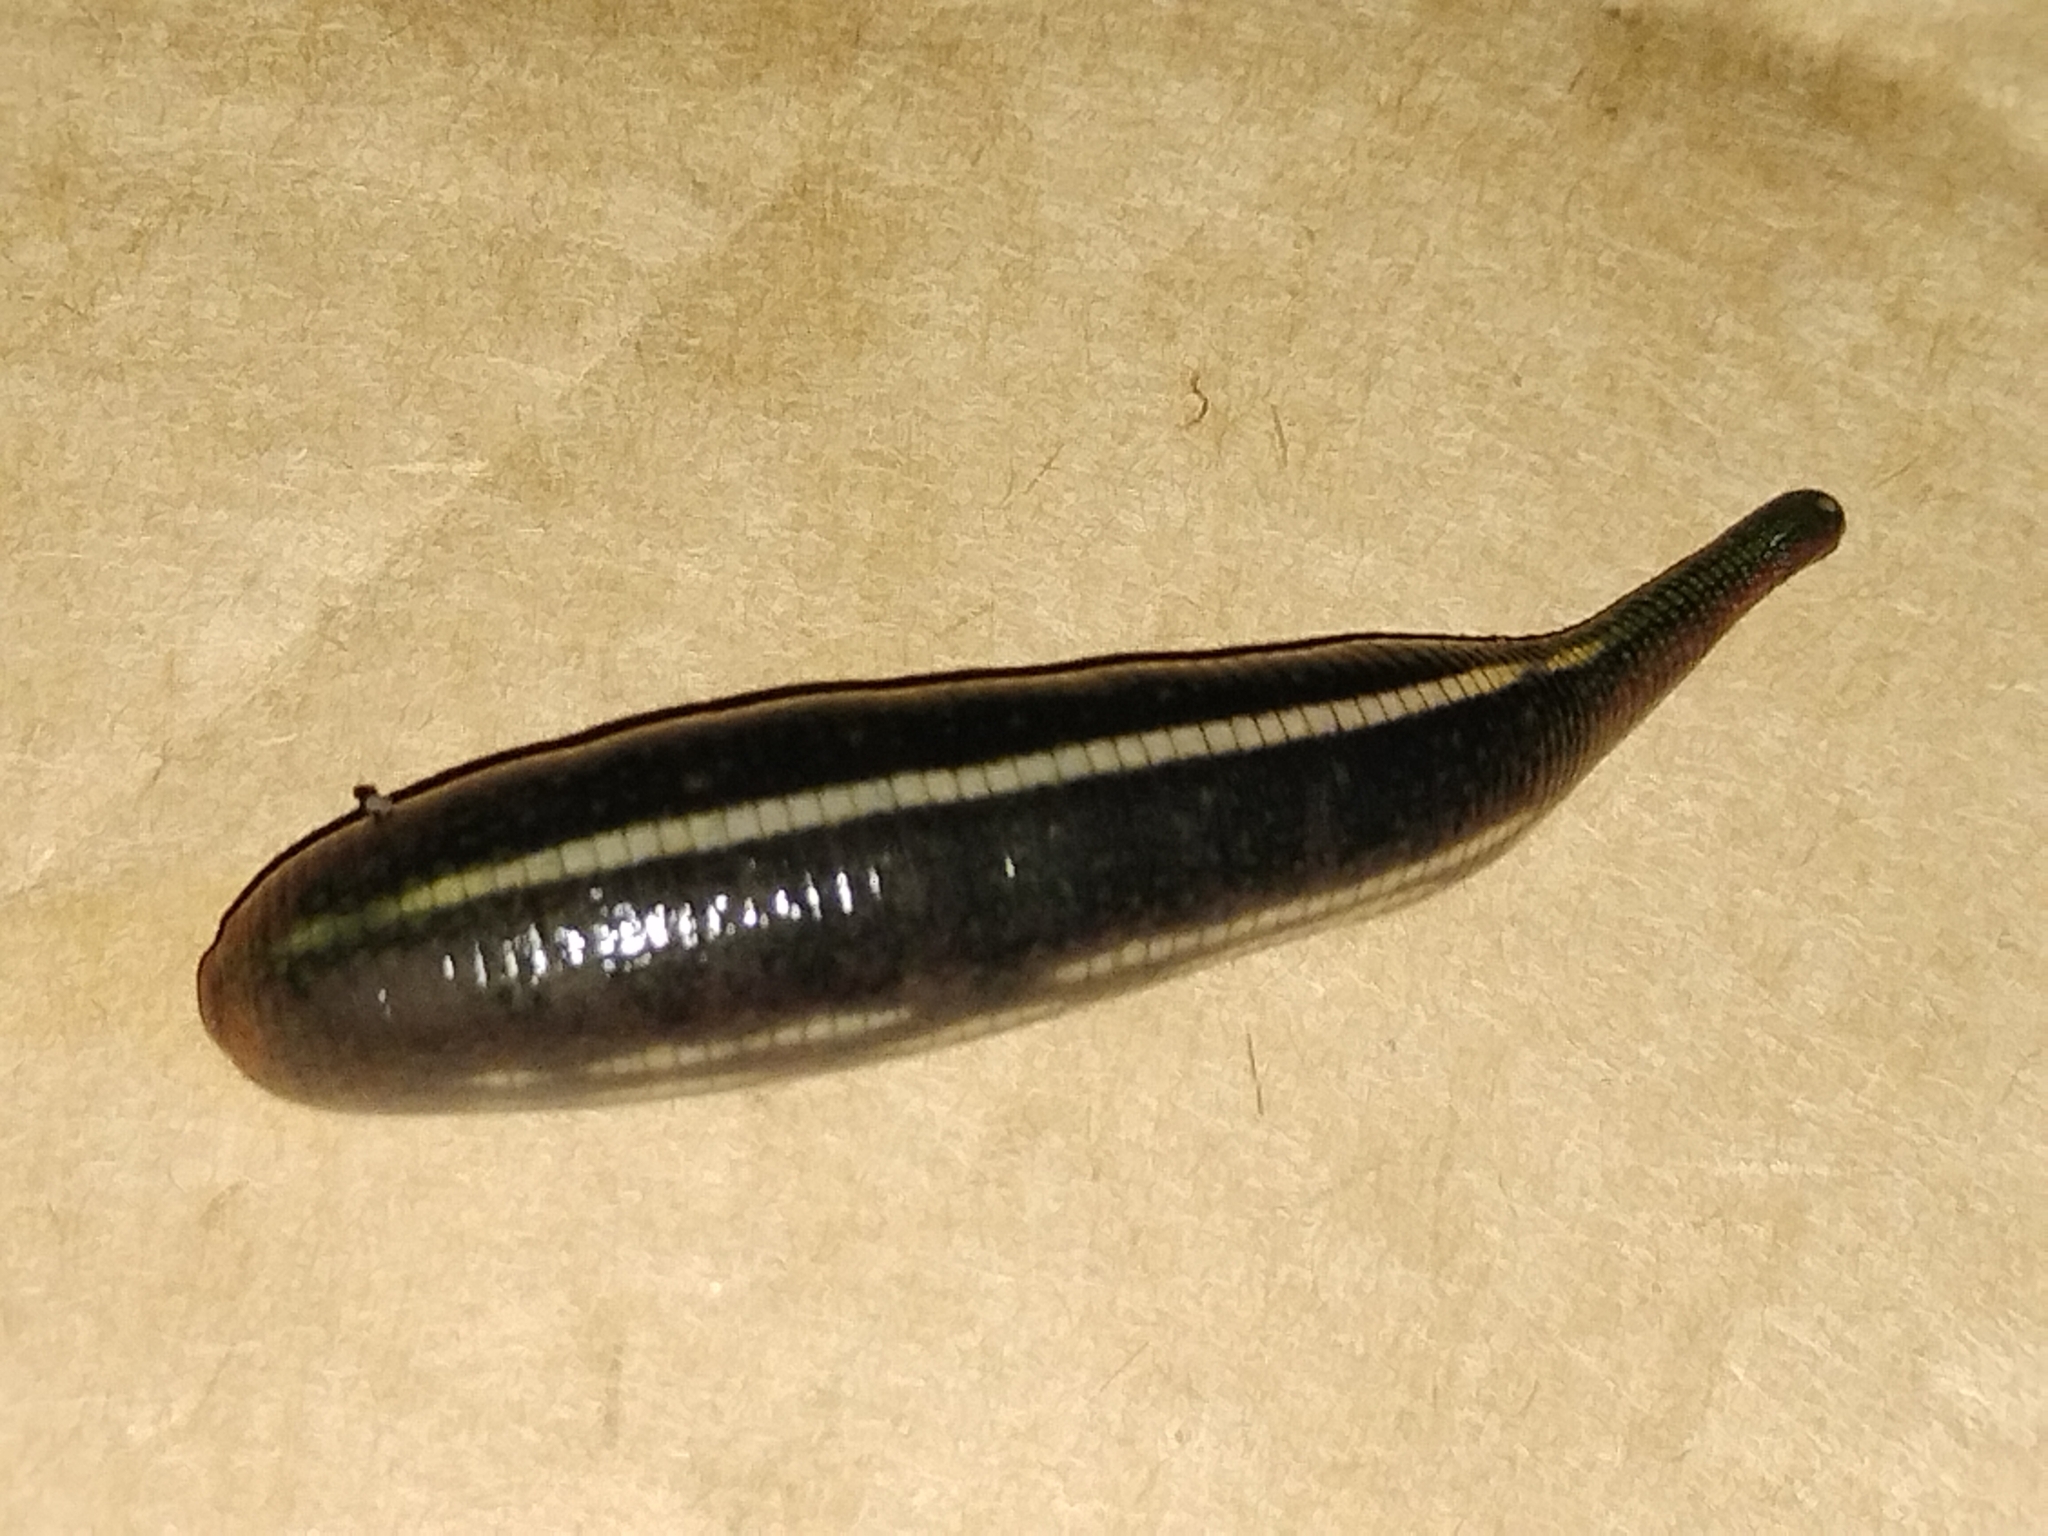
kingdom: Animalia
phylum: Annelida
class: Clitellata
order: Arhynchobdellida
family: Hirudinidae
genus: Richardsonianus
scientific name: Richardsonianus australis
